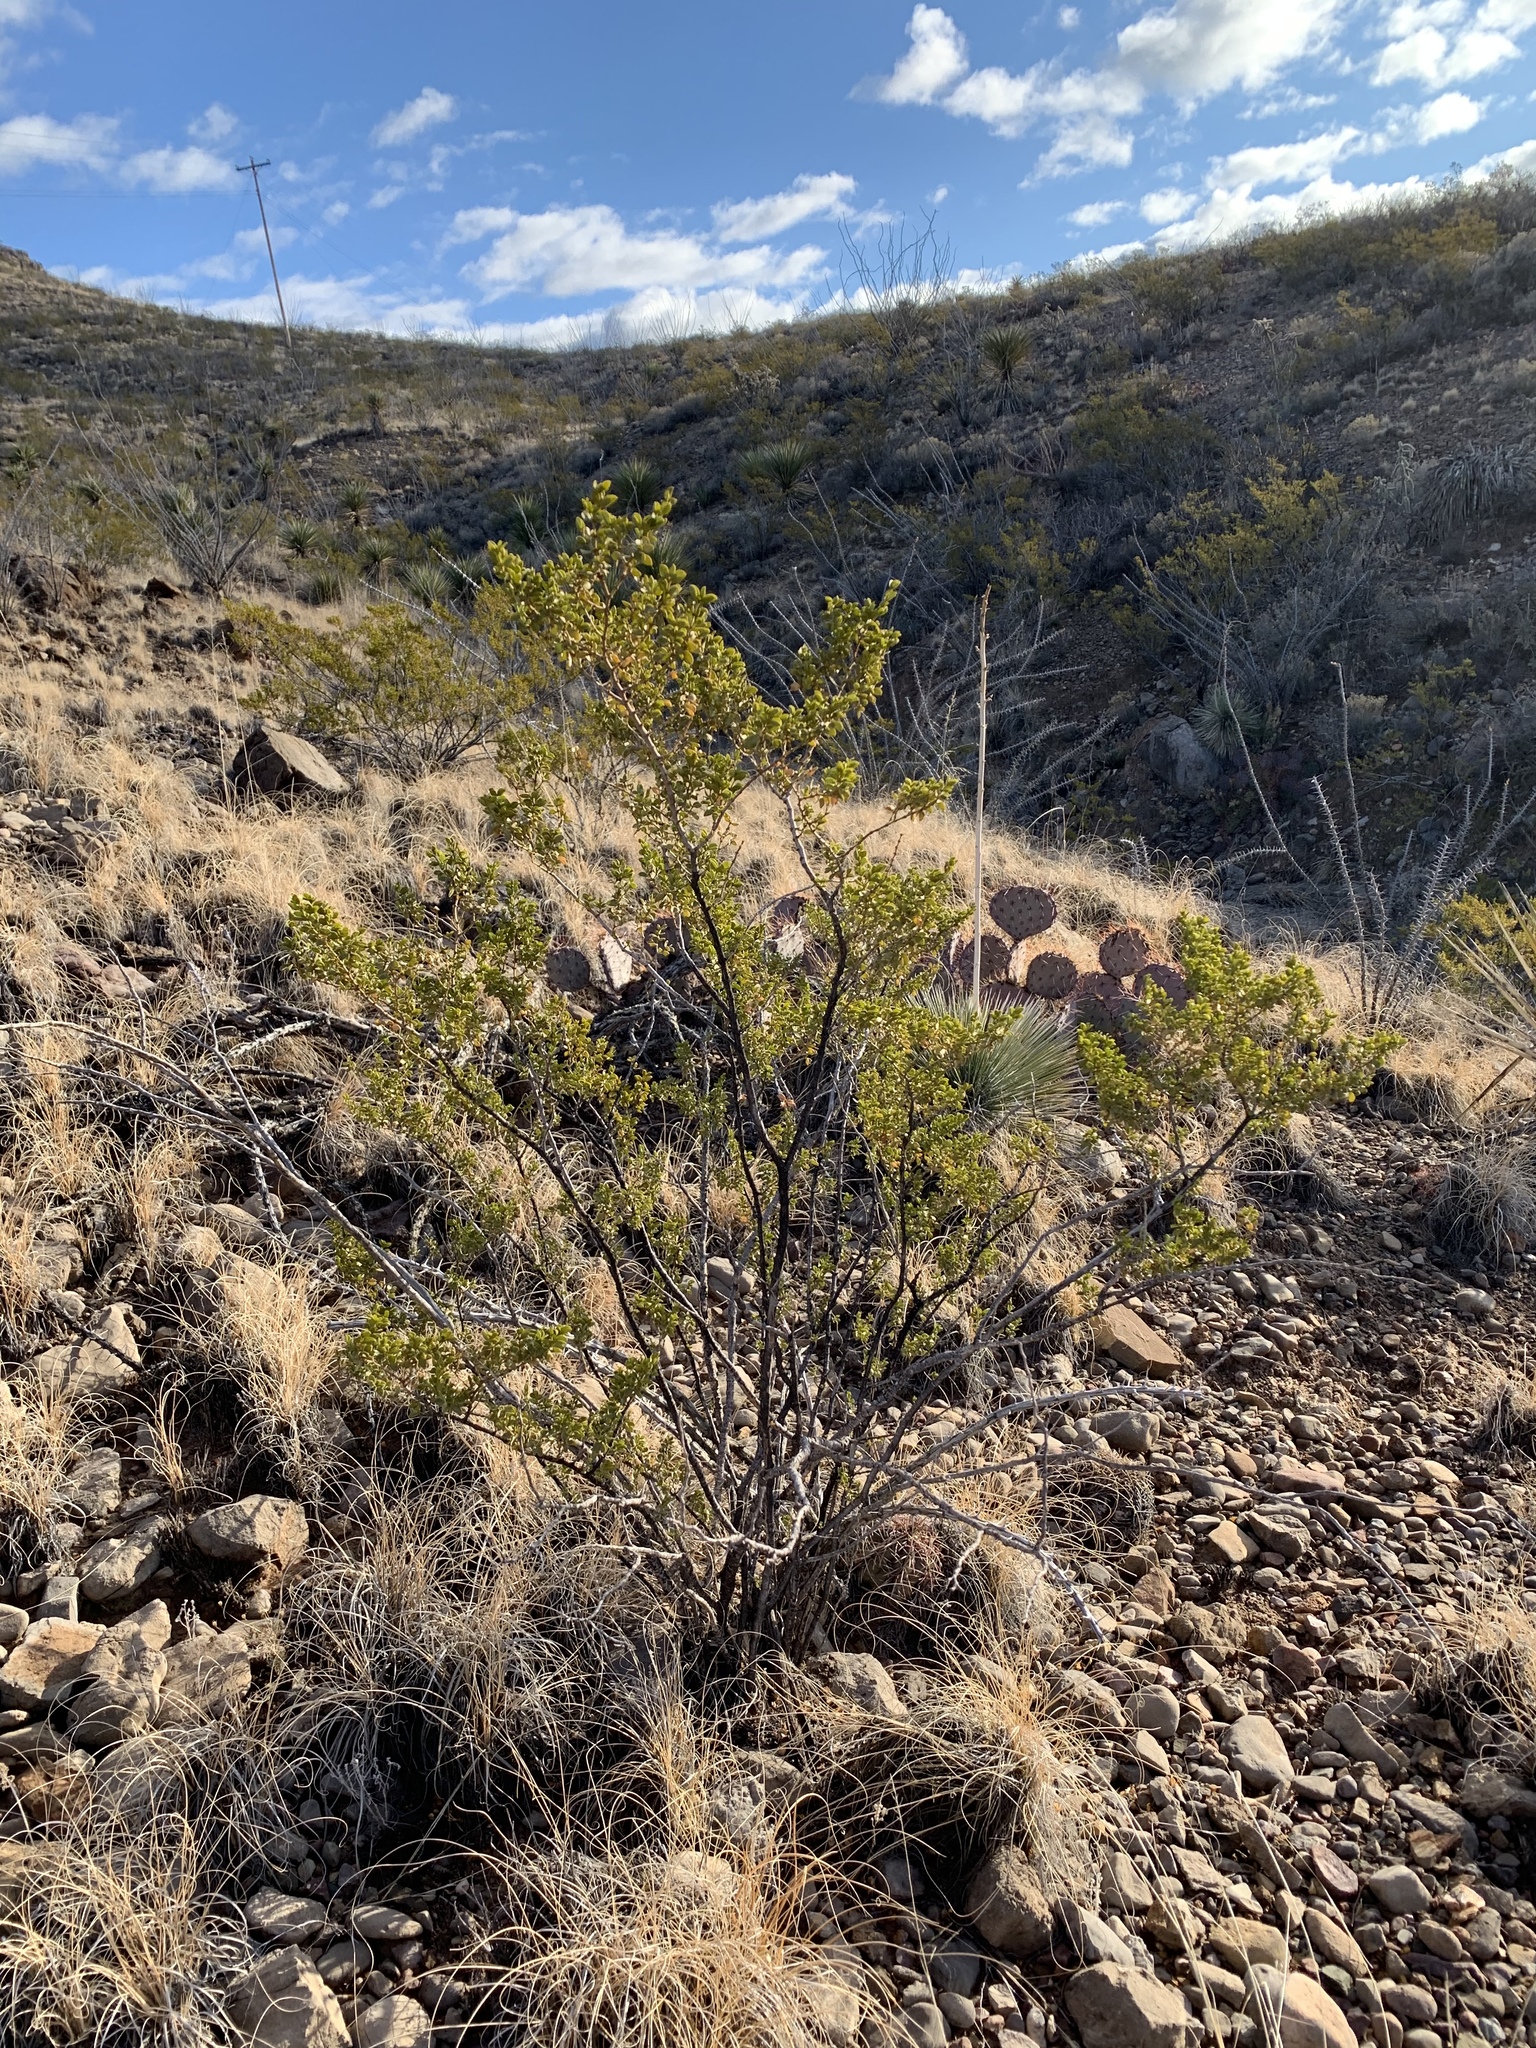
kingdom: Plantae
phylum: Tracheophyta
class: Magnoliopsida
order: Zygophyllales
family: Zygophyllaceae
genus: Larrea
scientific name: Larrea tridentata
